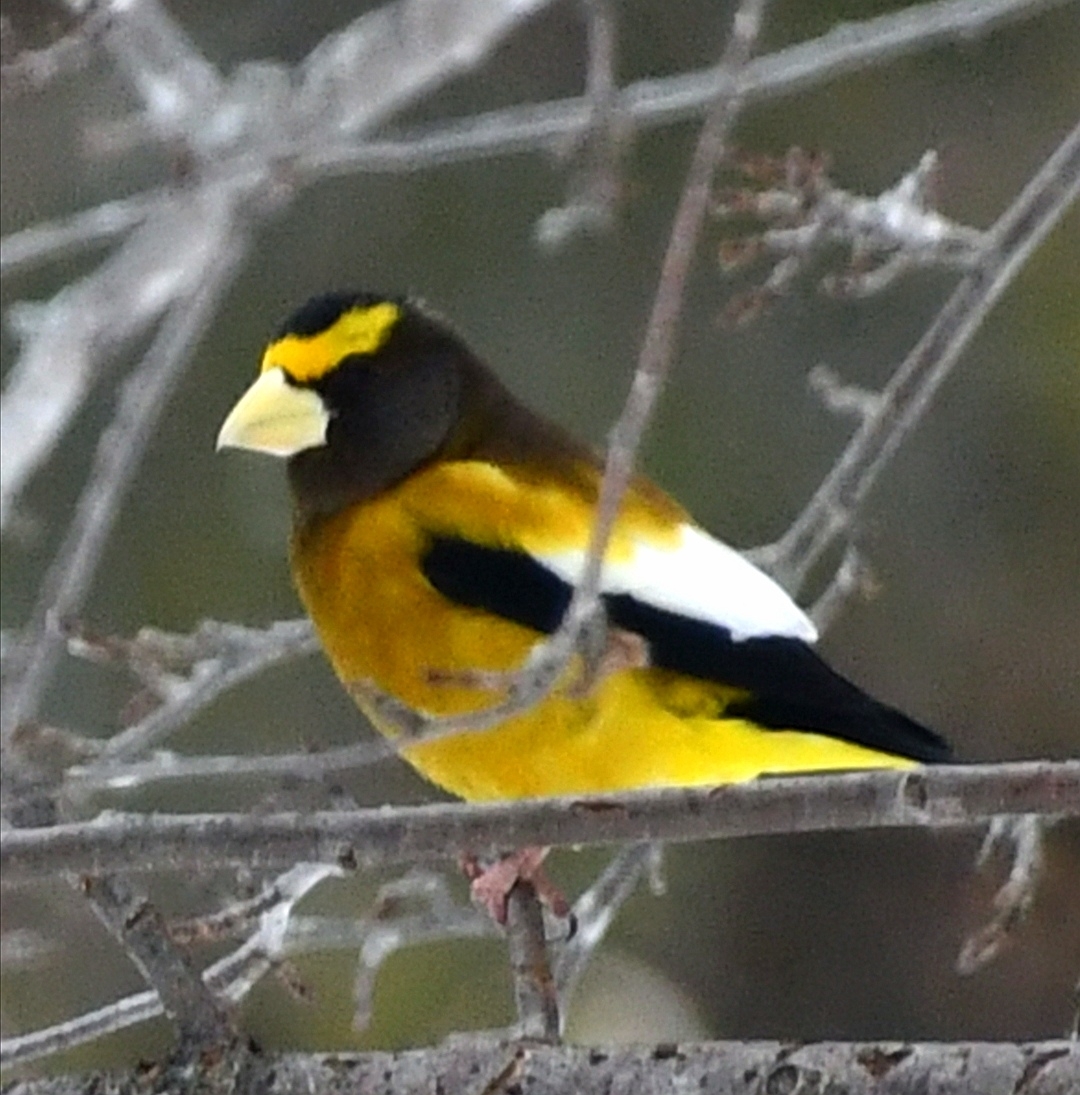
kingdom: Animalia
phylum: Chordata
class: Aves
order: Passeriformes
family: Fringillidae
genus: Hesperiphona
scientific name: Hesperiphona vespertina
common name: Evening grosbeak
